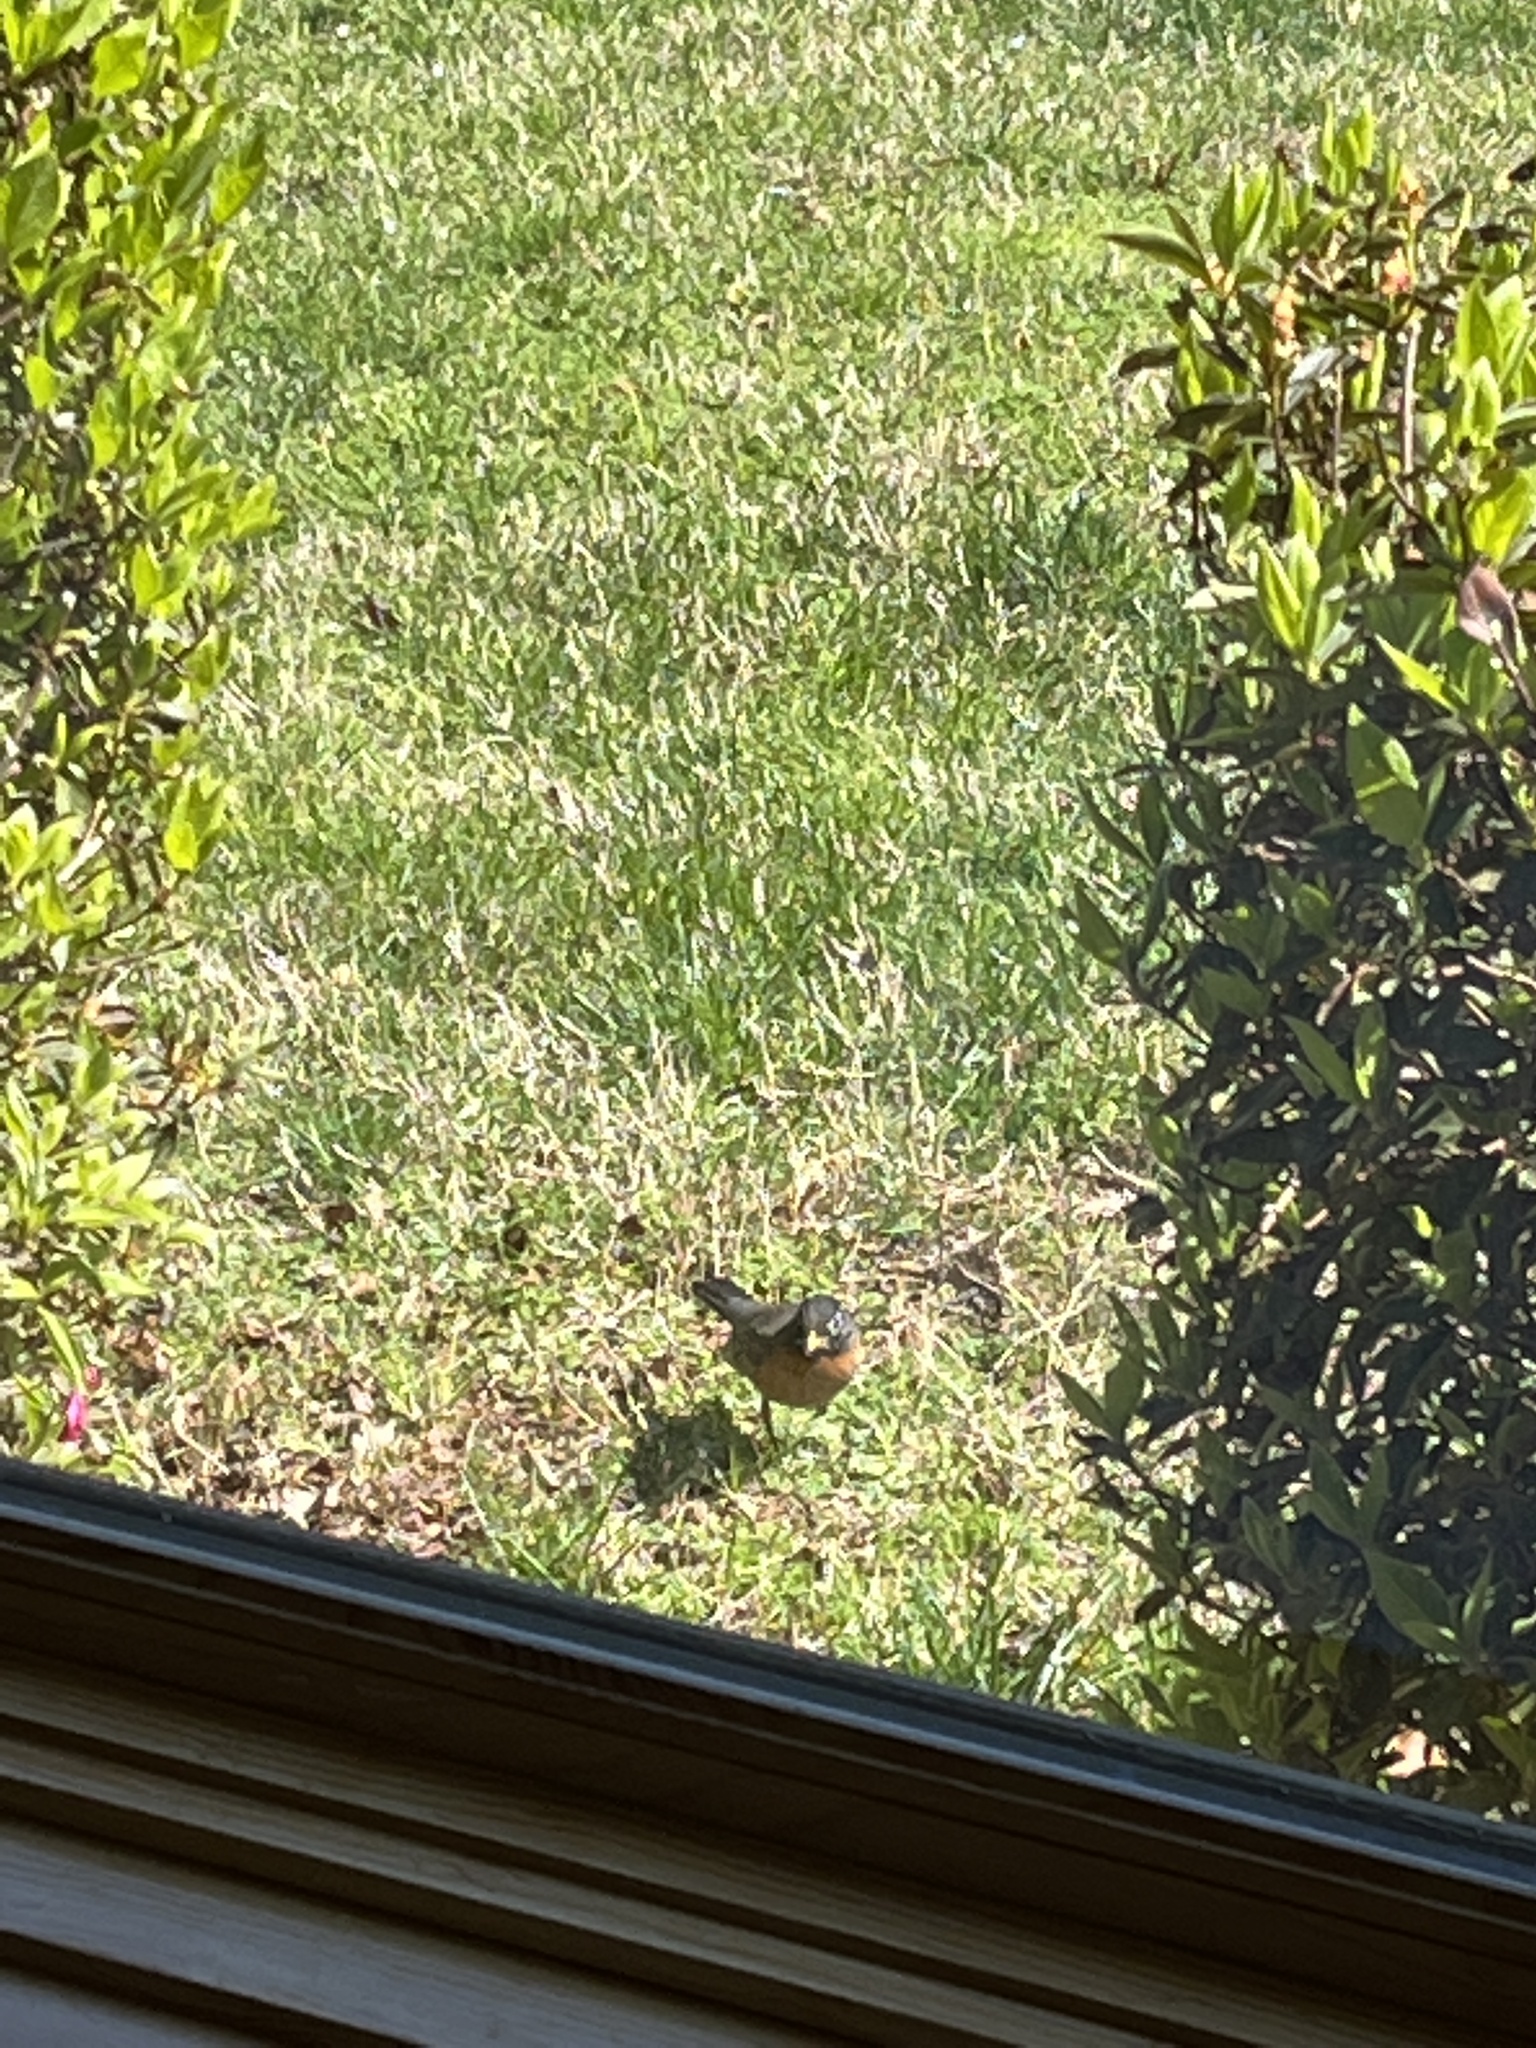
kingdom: Animalia
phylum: Chordata
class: Aves
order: Passeriformes
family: Turdidae
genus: Turdus
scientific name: Turdus migratorius
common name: American robin
